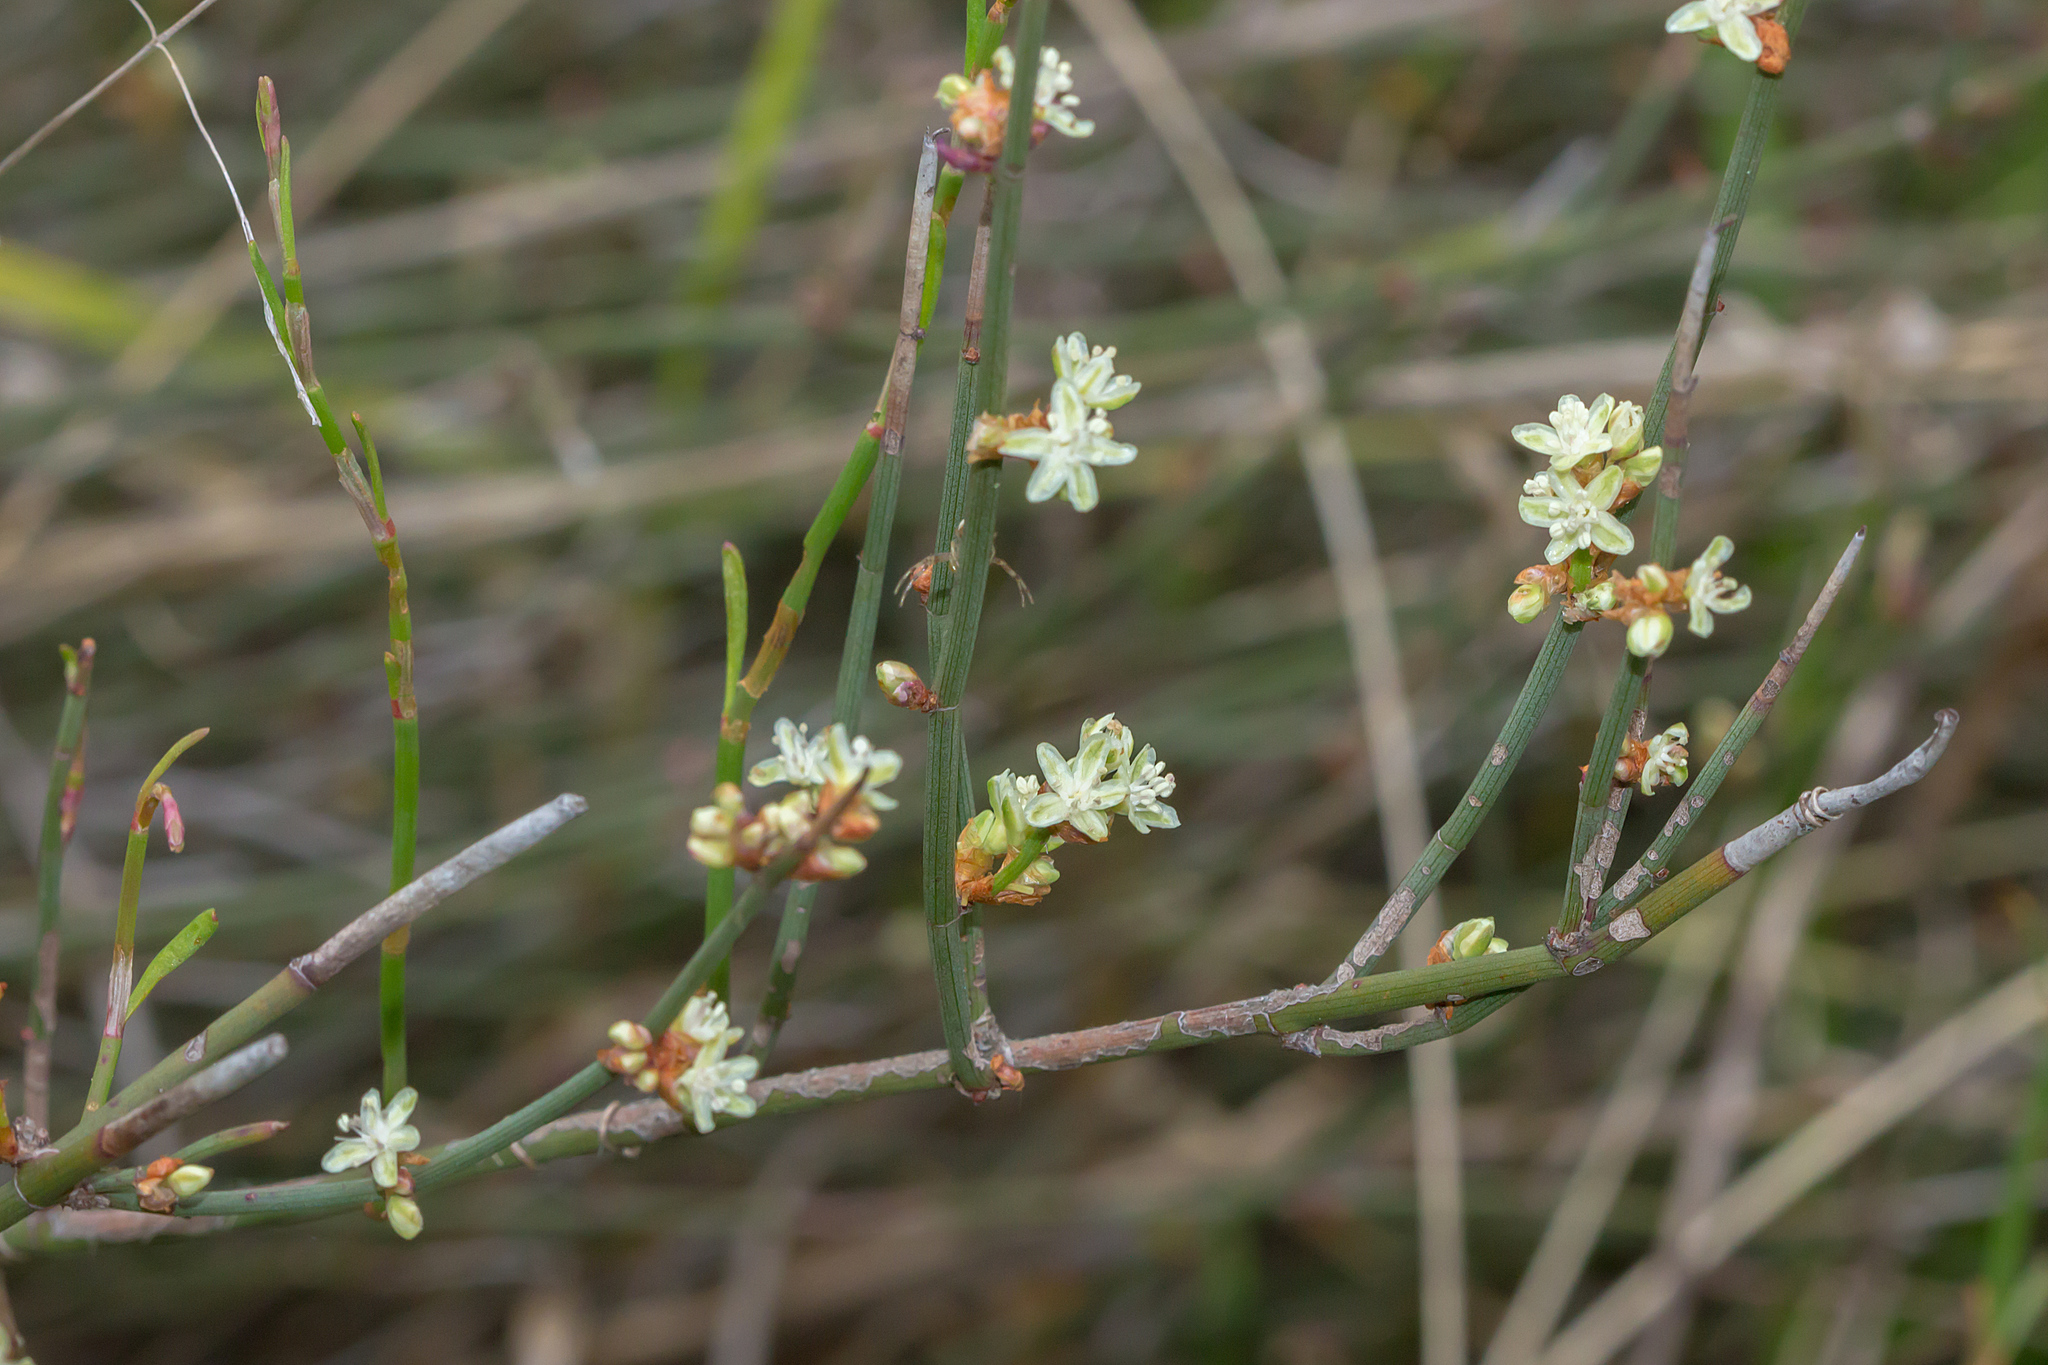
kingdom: Plantae
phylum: Tracheophyta
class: Magnoliopsida
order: Caryophyllales
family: Polygonaceae
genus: Duma
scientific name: Duma florulenta
